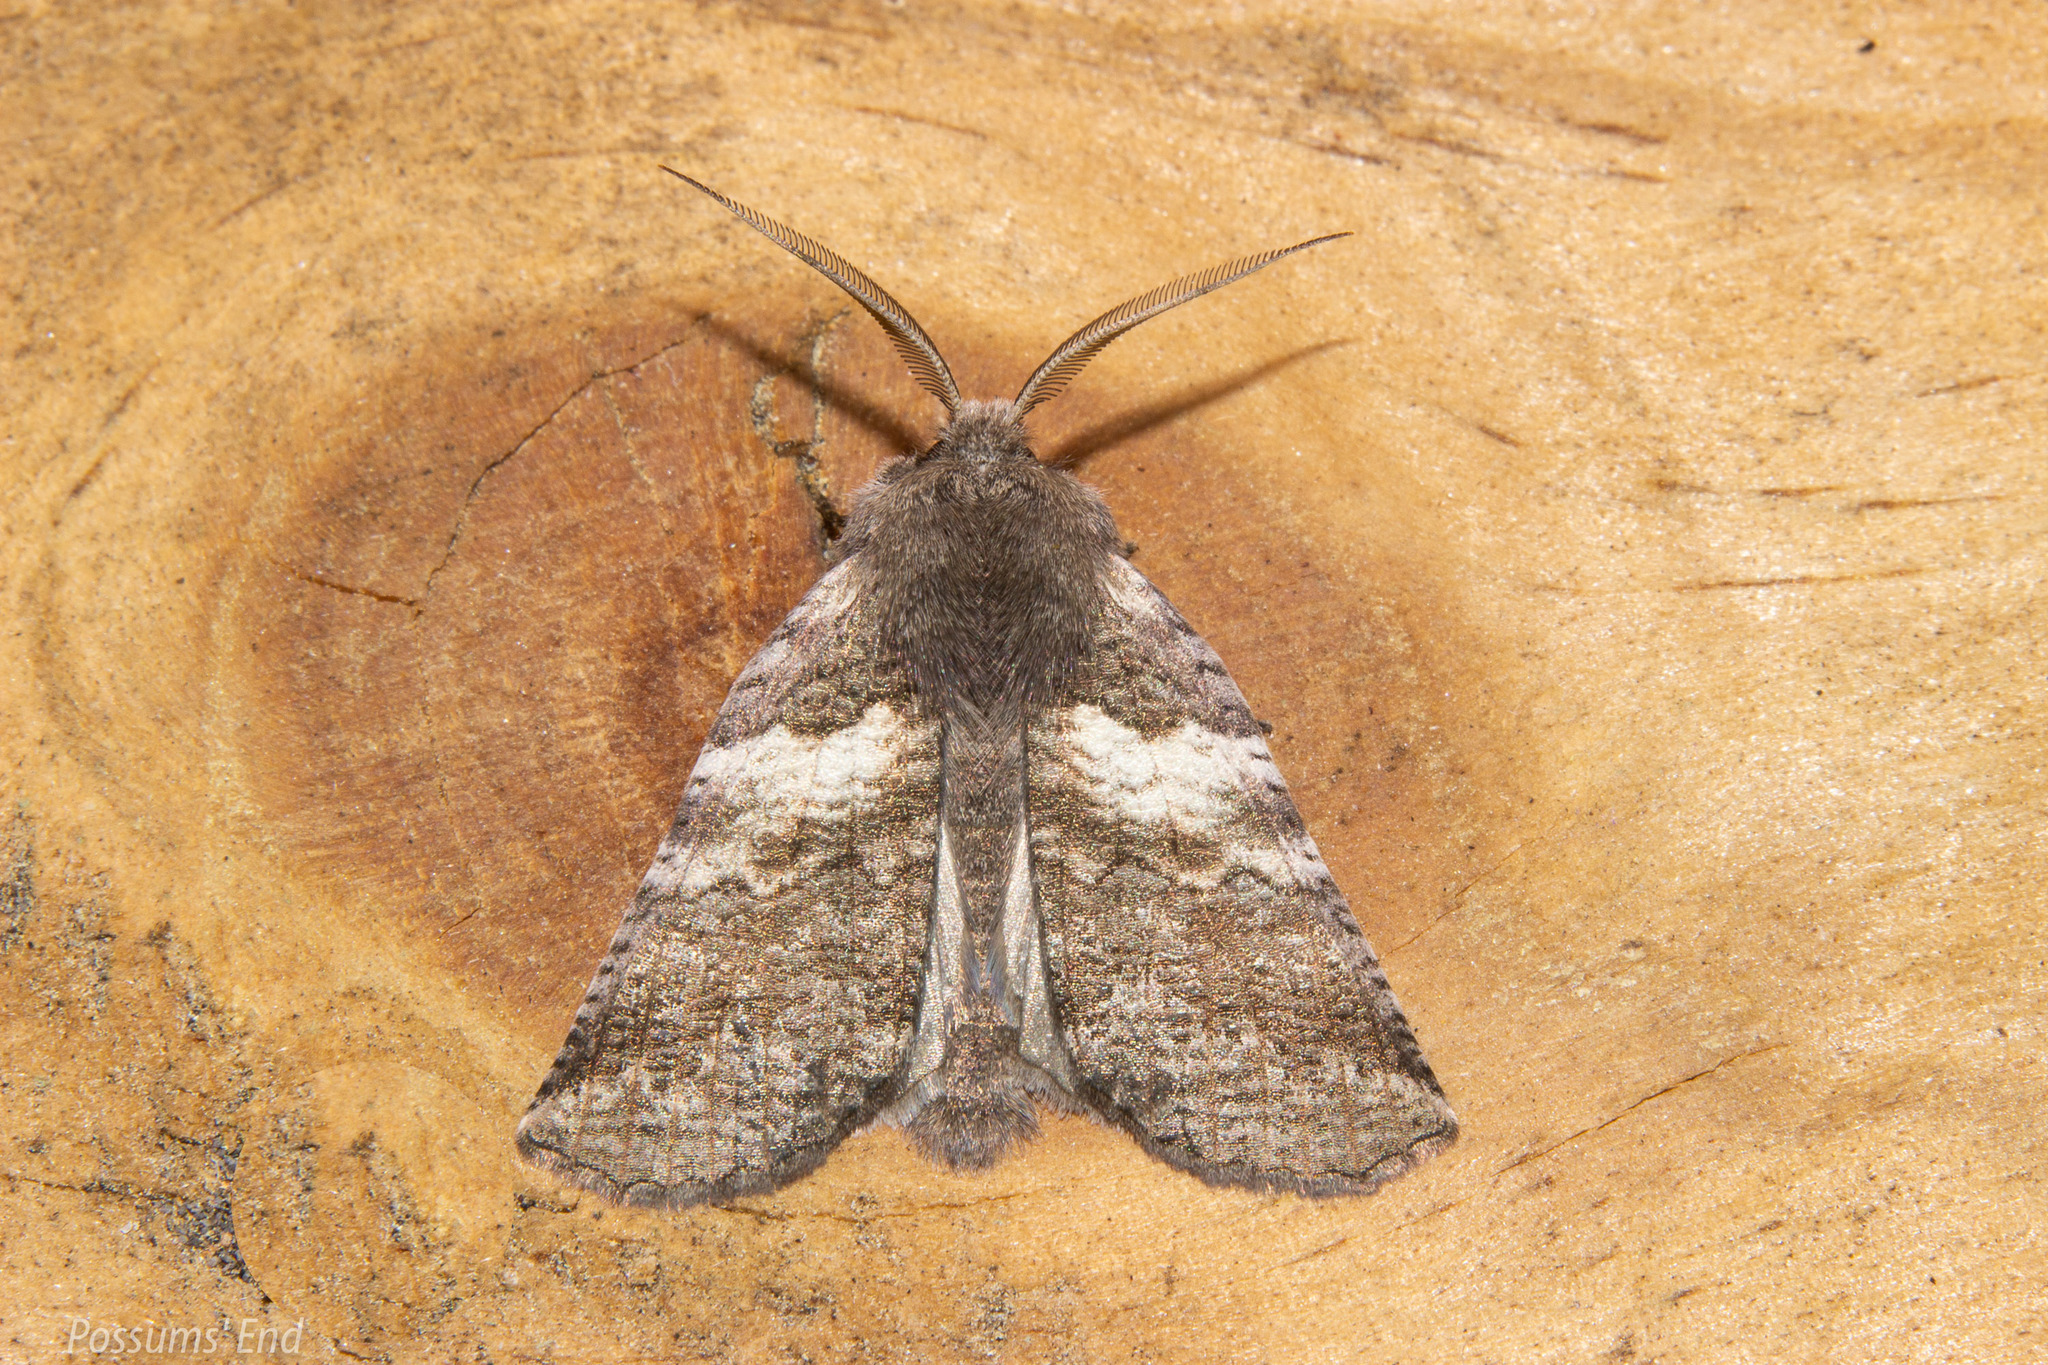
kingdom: Animalia
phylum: Arthropoda
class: Insecta
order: Lepidoptera
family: Geometridae
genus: Declana
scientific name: Declana
